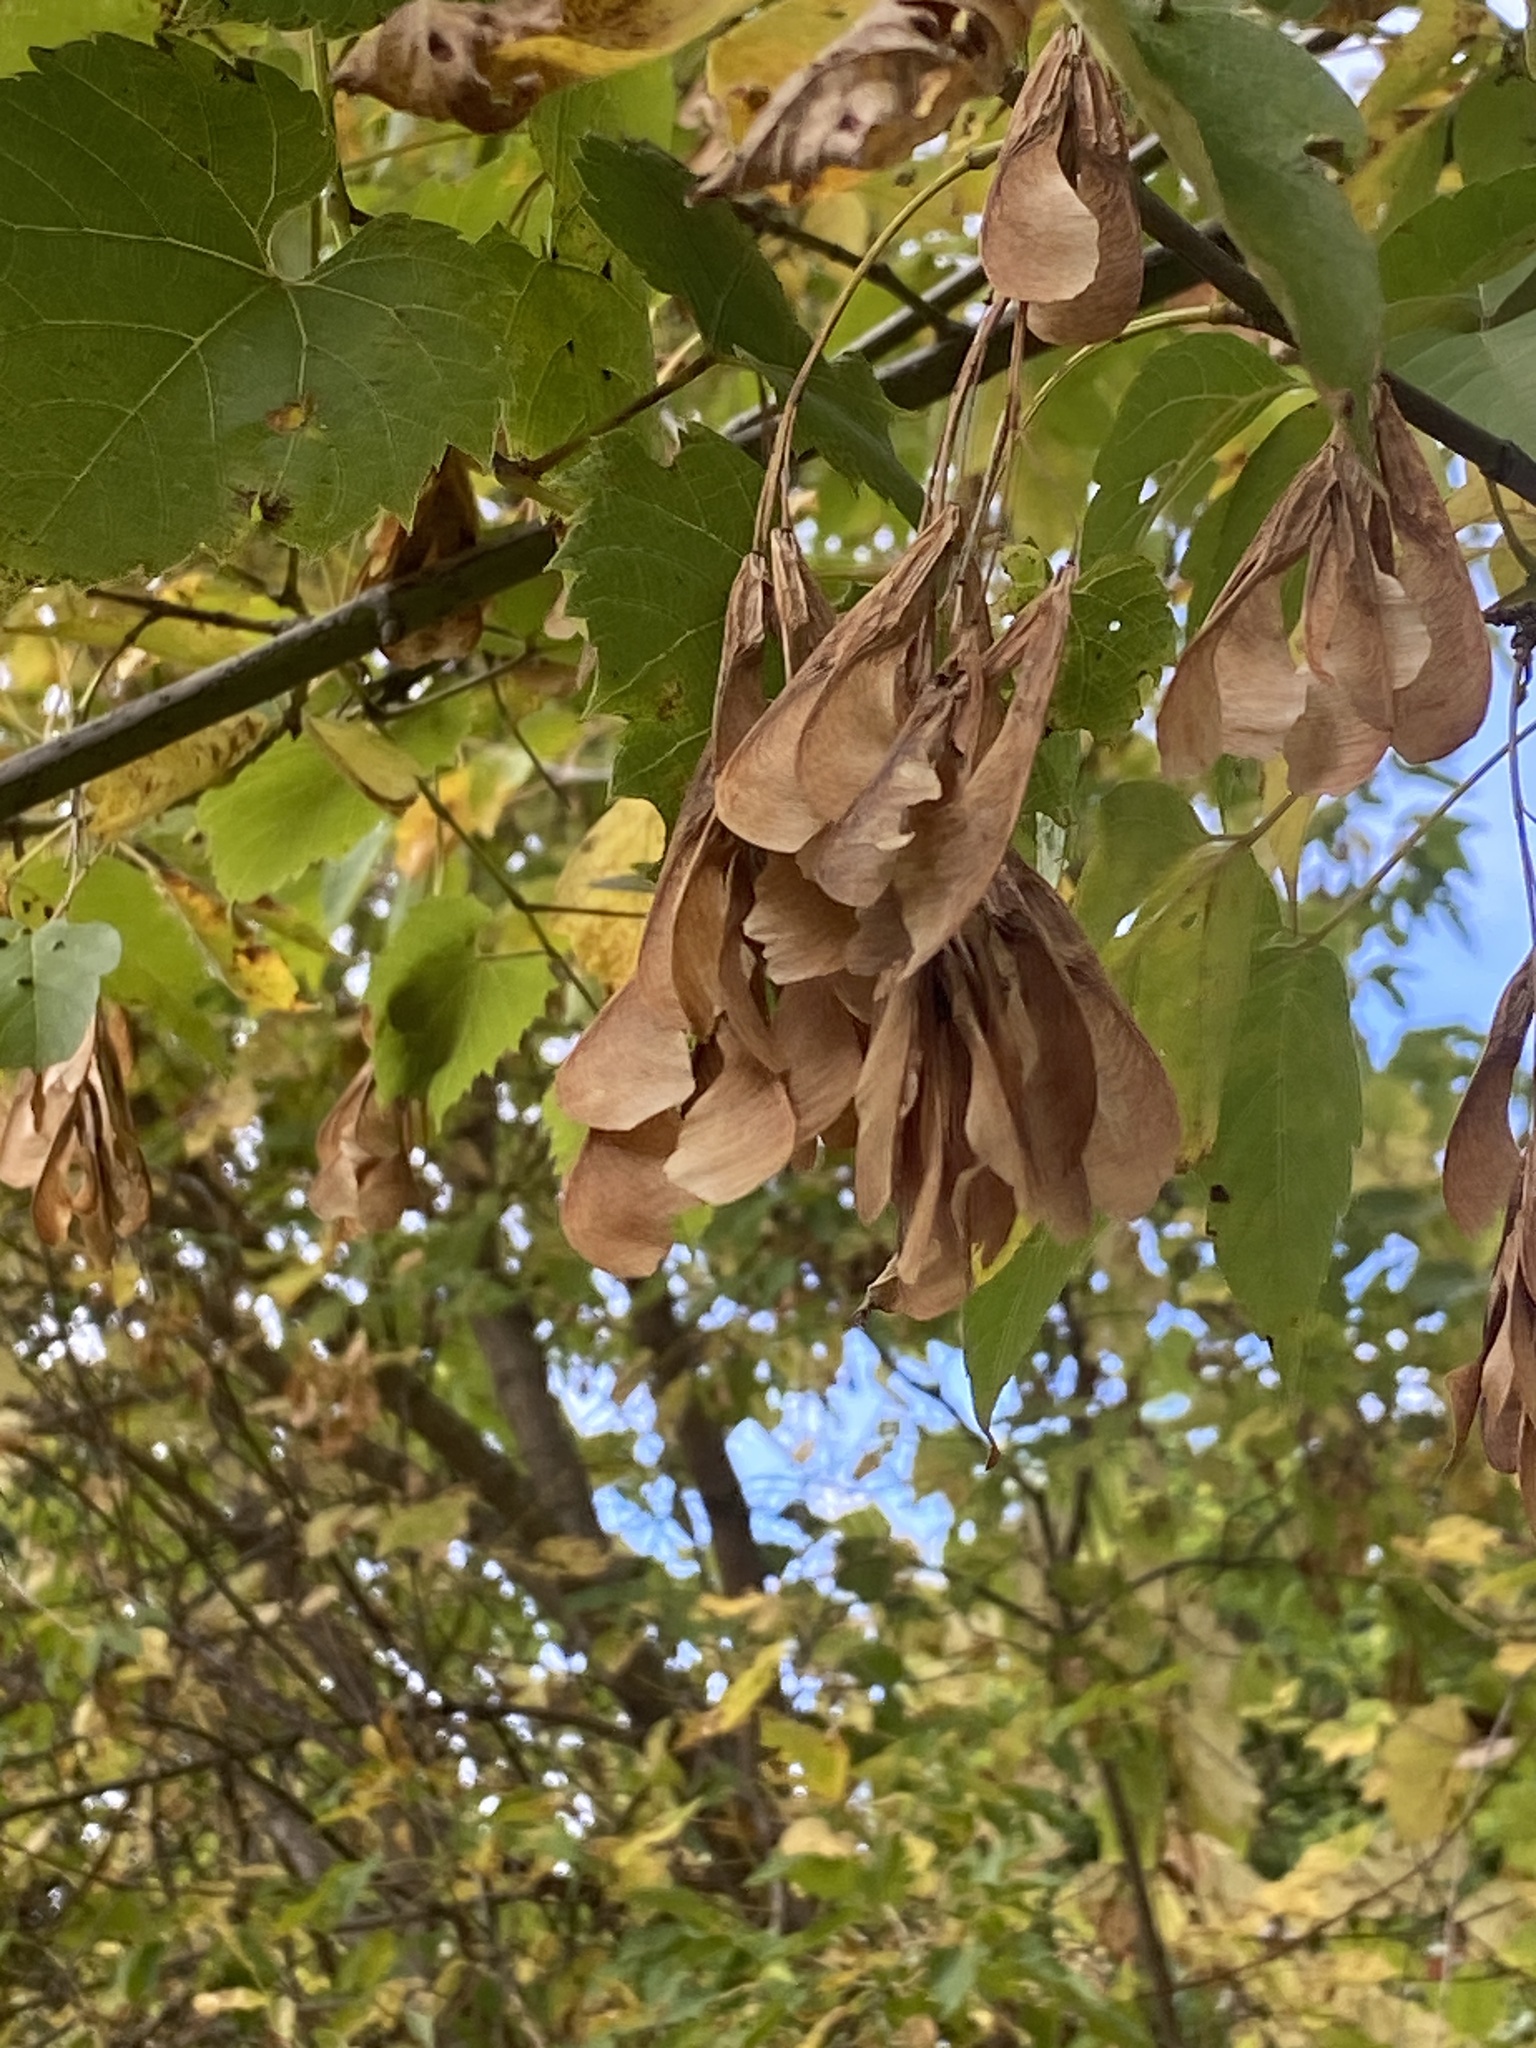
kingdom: Plantae
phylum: Tracheophyta
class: Magnoliopsida
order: Sapindales
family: Sapindaceae
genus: Acer
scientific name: Acer negundo
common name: Ashleaf maple
